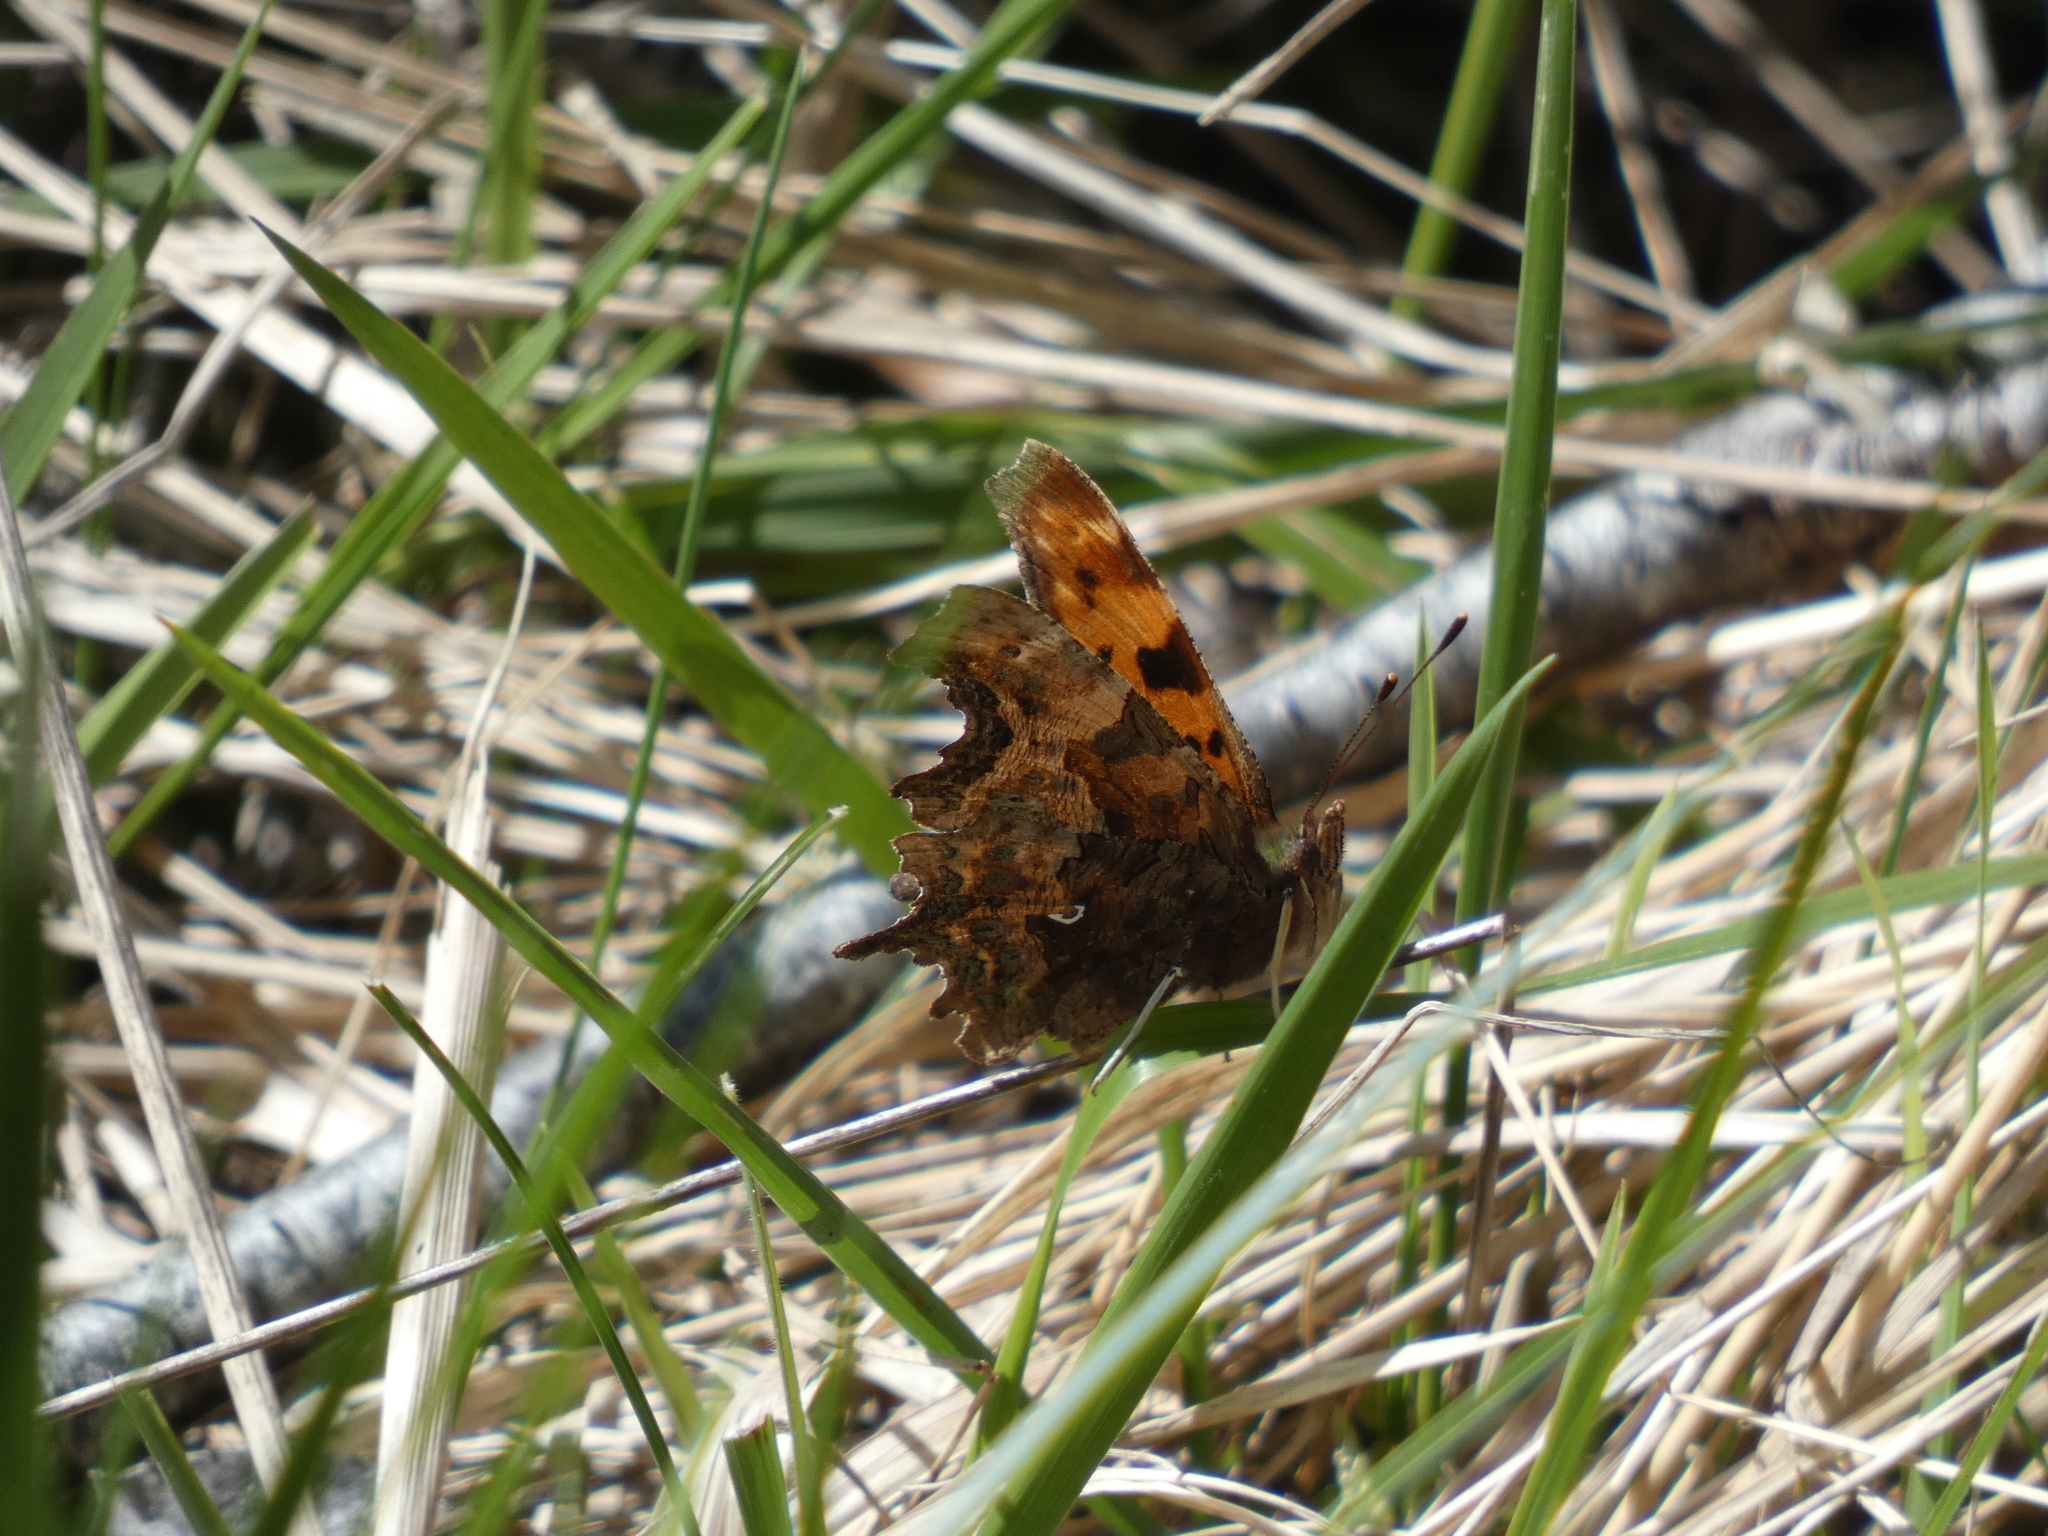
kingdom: Animalia
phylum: Arthropoda
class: Insecta
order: Lepidoptera
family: Nymphalidae
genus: Polygonia
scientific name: Polygonia c-album
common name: Comma
